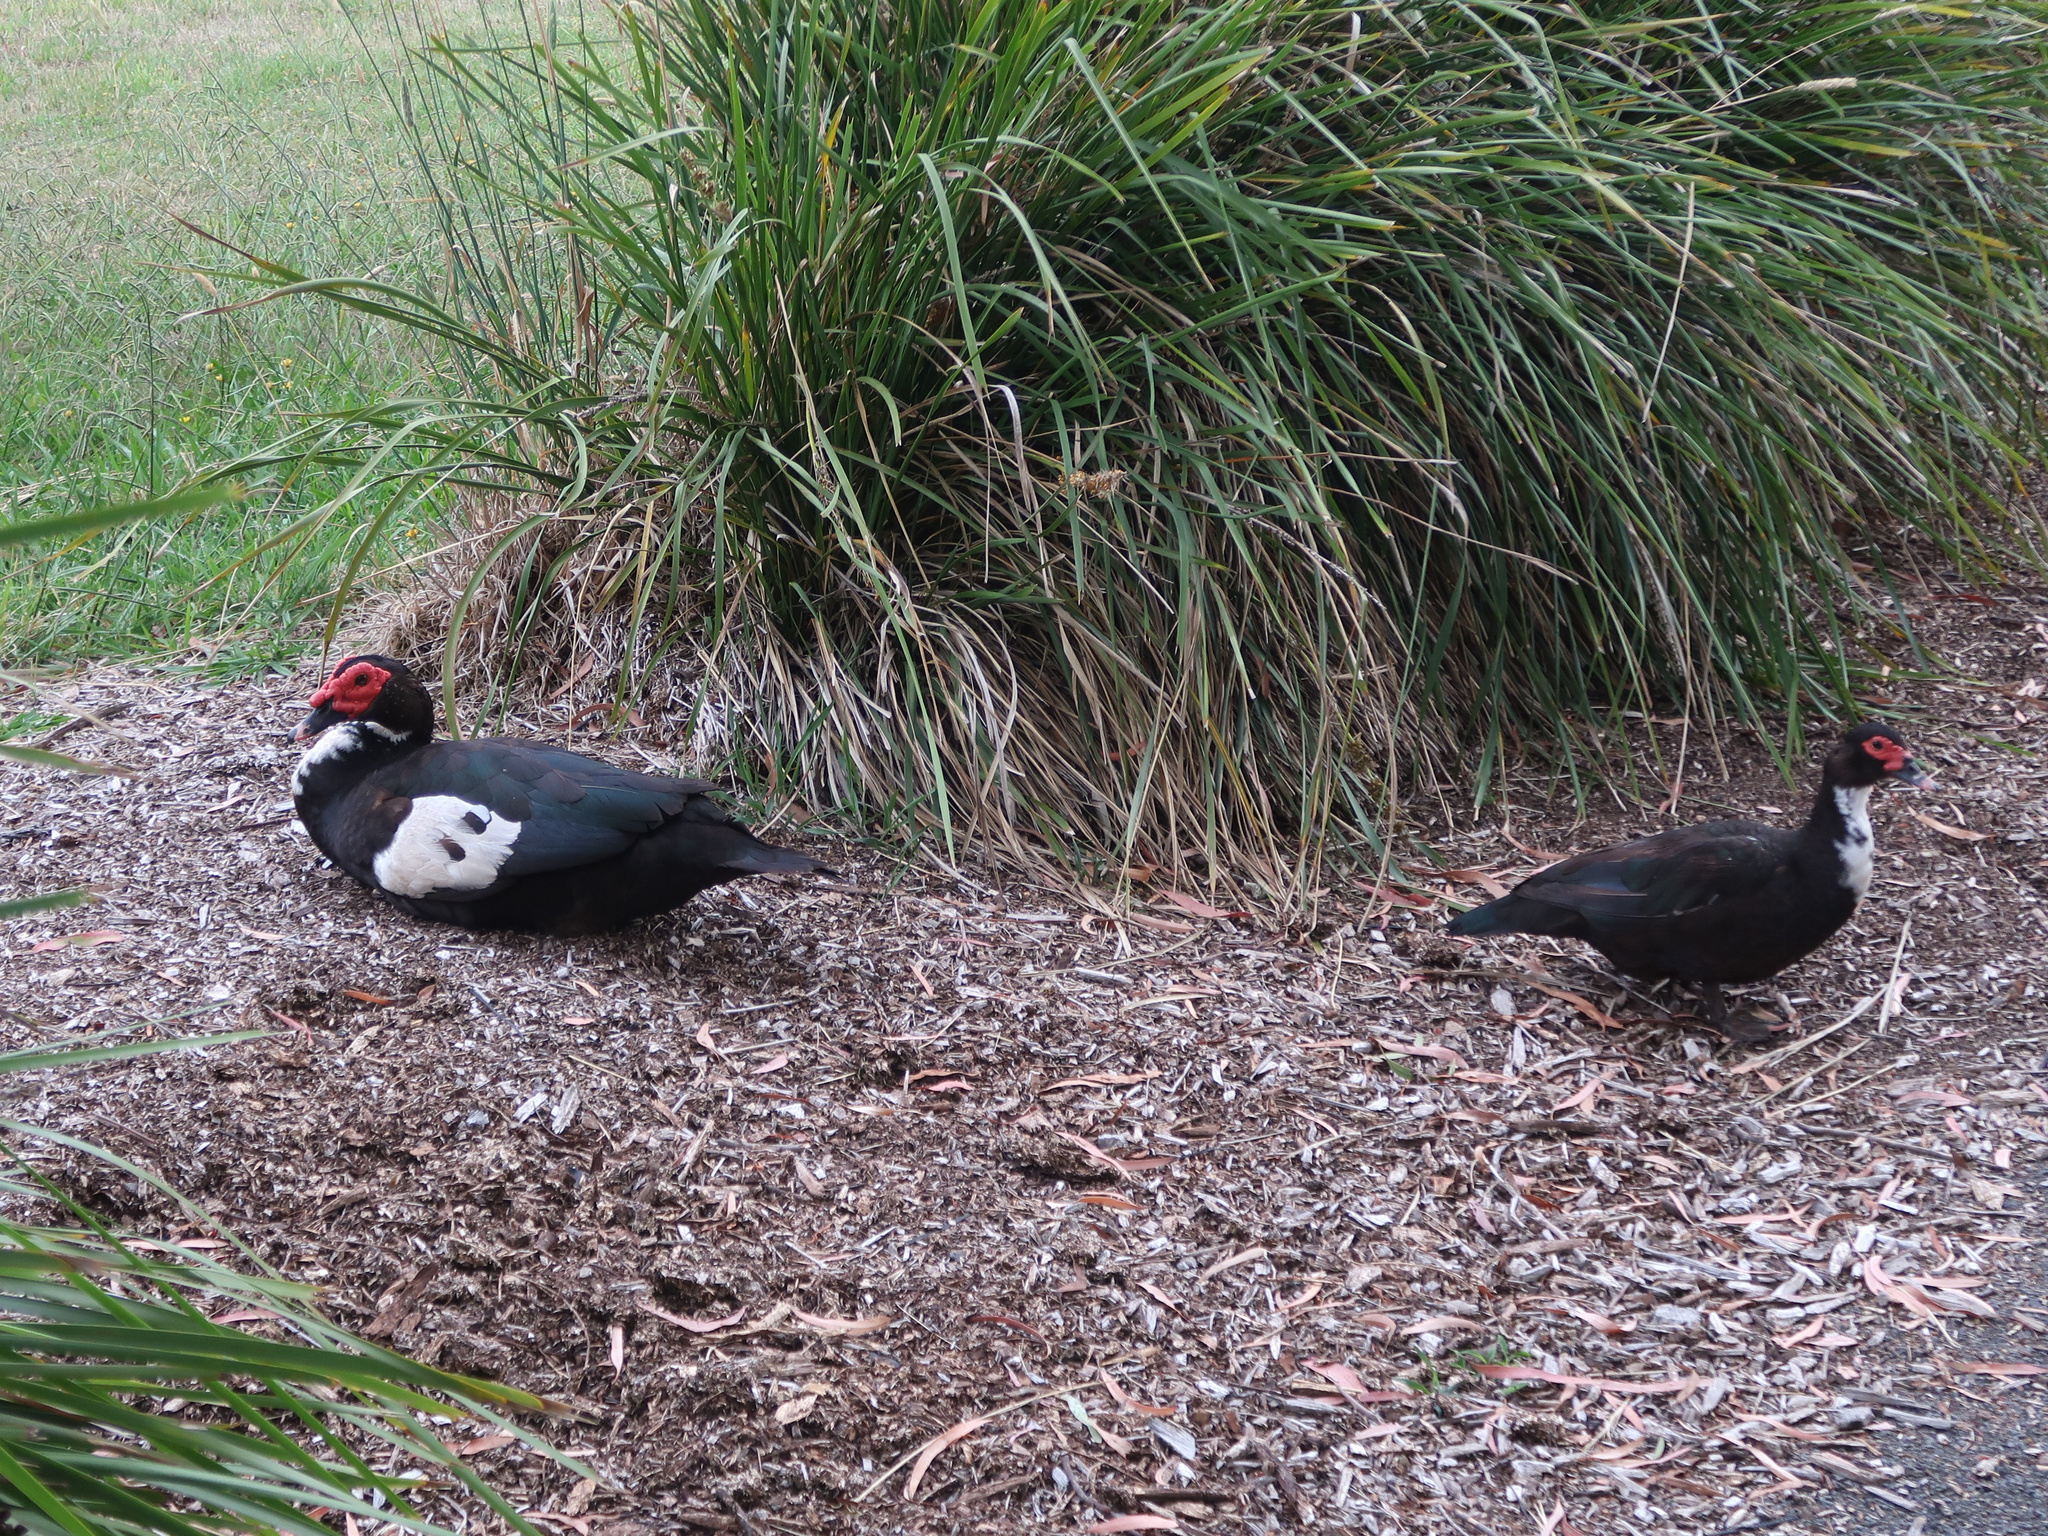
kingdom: Animalia
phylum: Chordata
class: Aves
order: Anseriformes
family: Anatidae
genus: Cairina
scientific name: Cairina moschata
